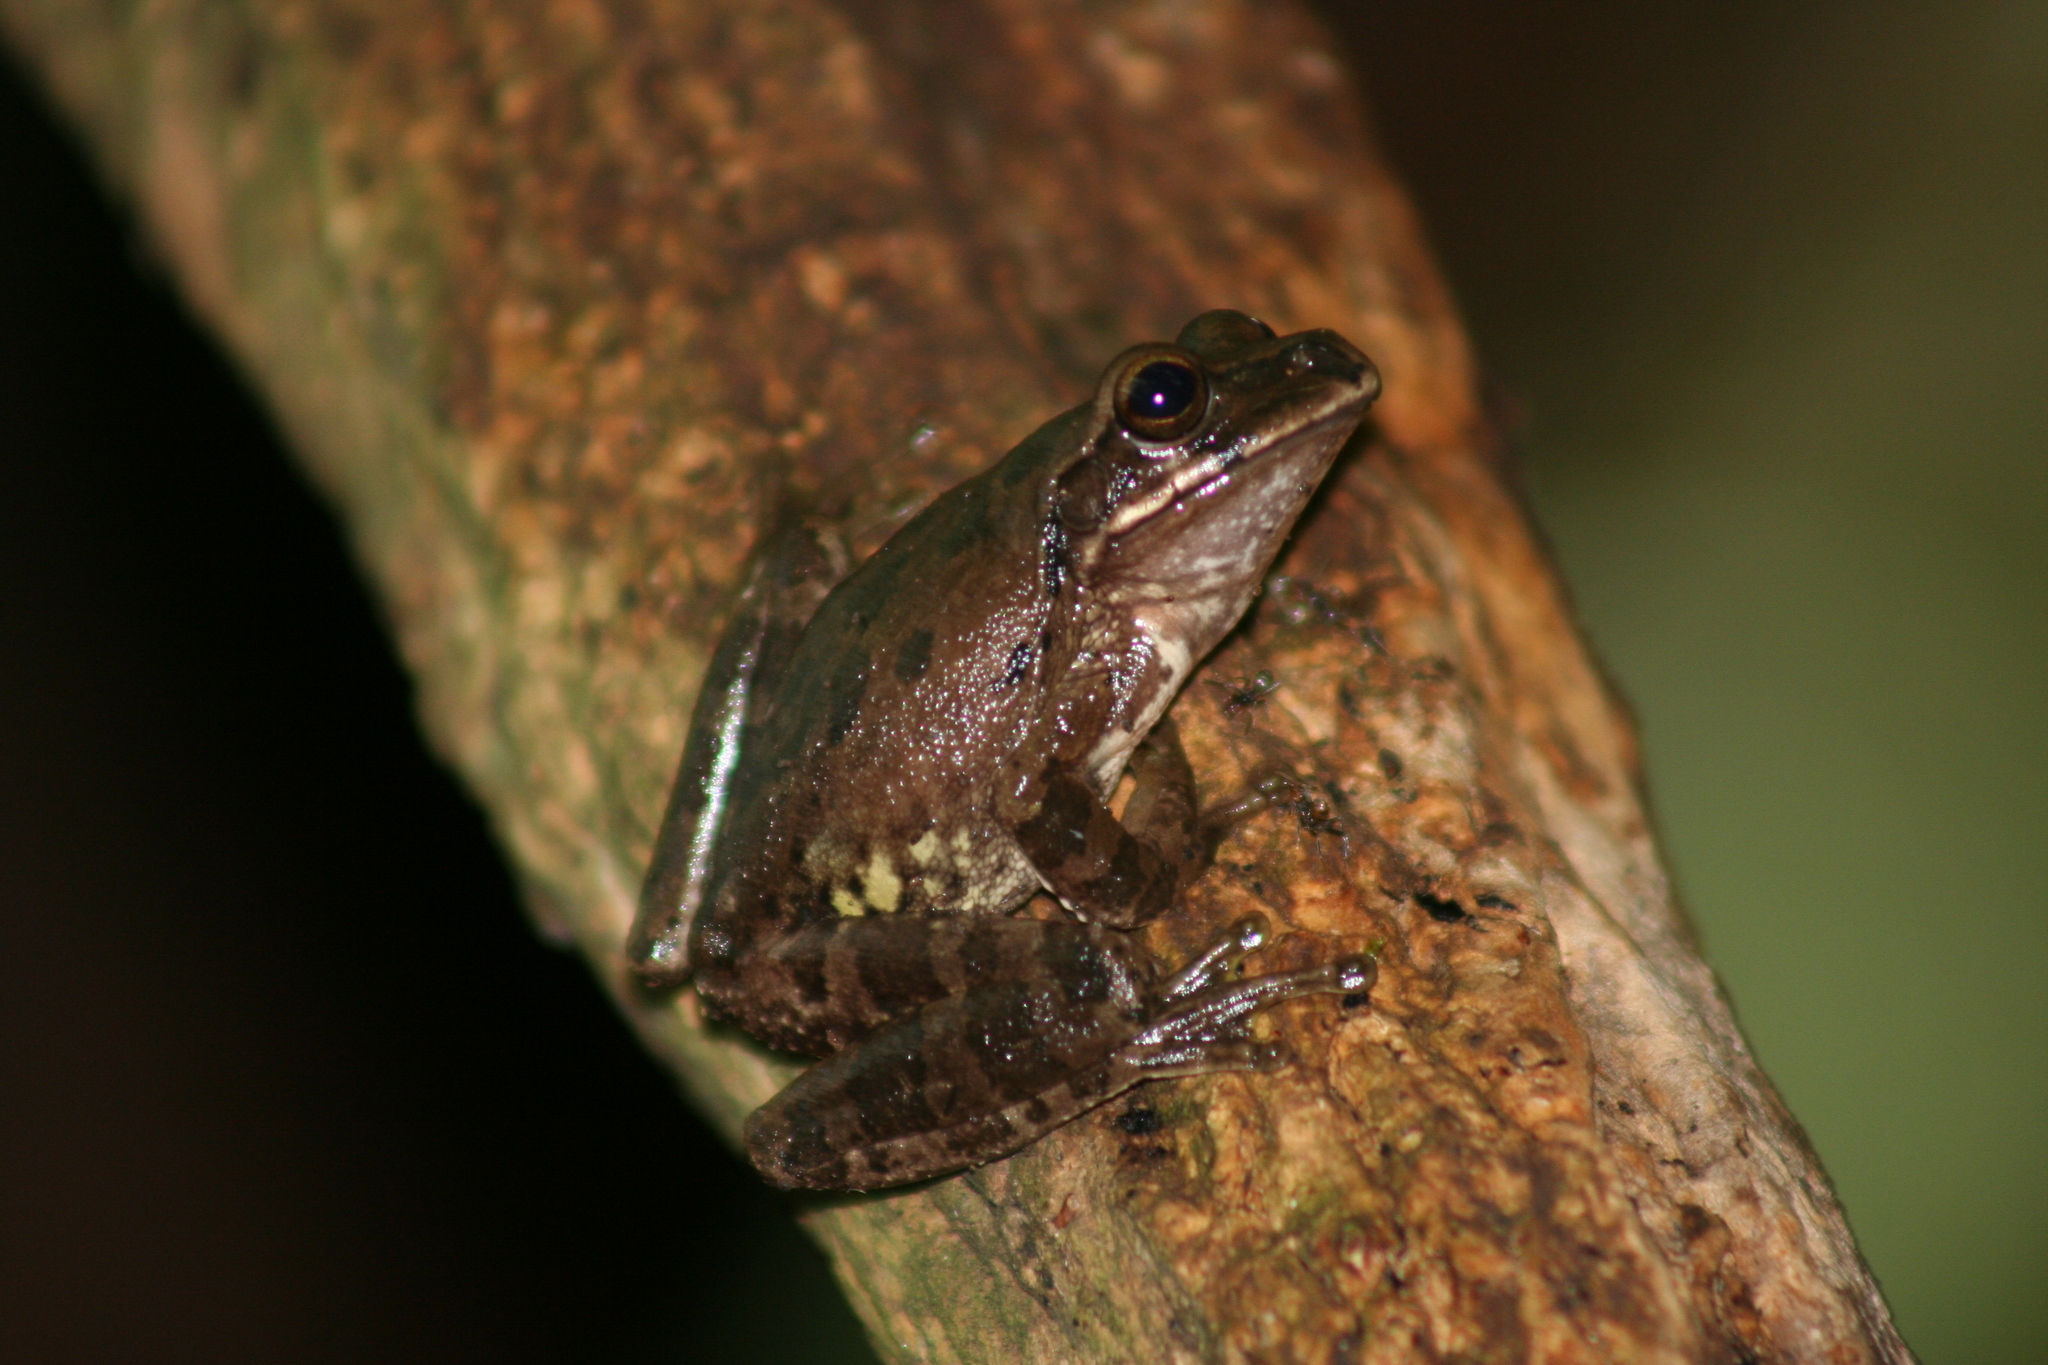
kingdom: Animalia
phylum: Chordata
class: Amphibia
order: Anura
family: Hylidae
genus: Smilisca
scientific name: Smilisca baudinii
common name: Mexican smilisca
